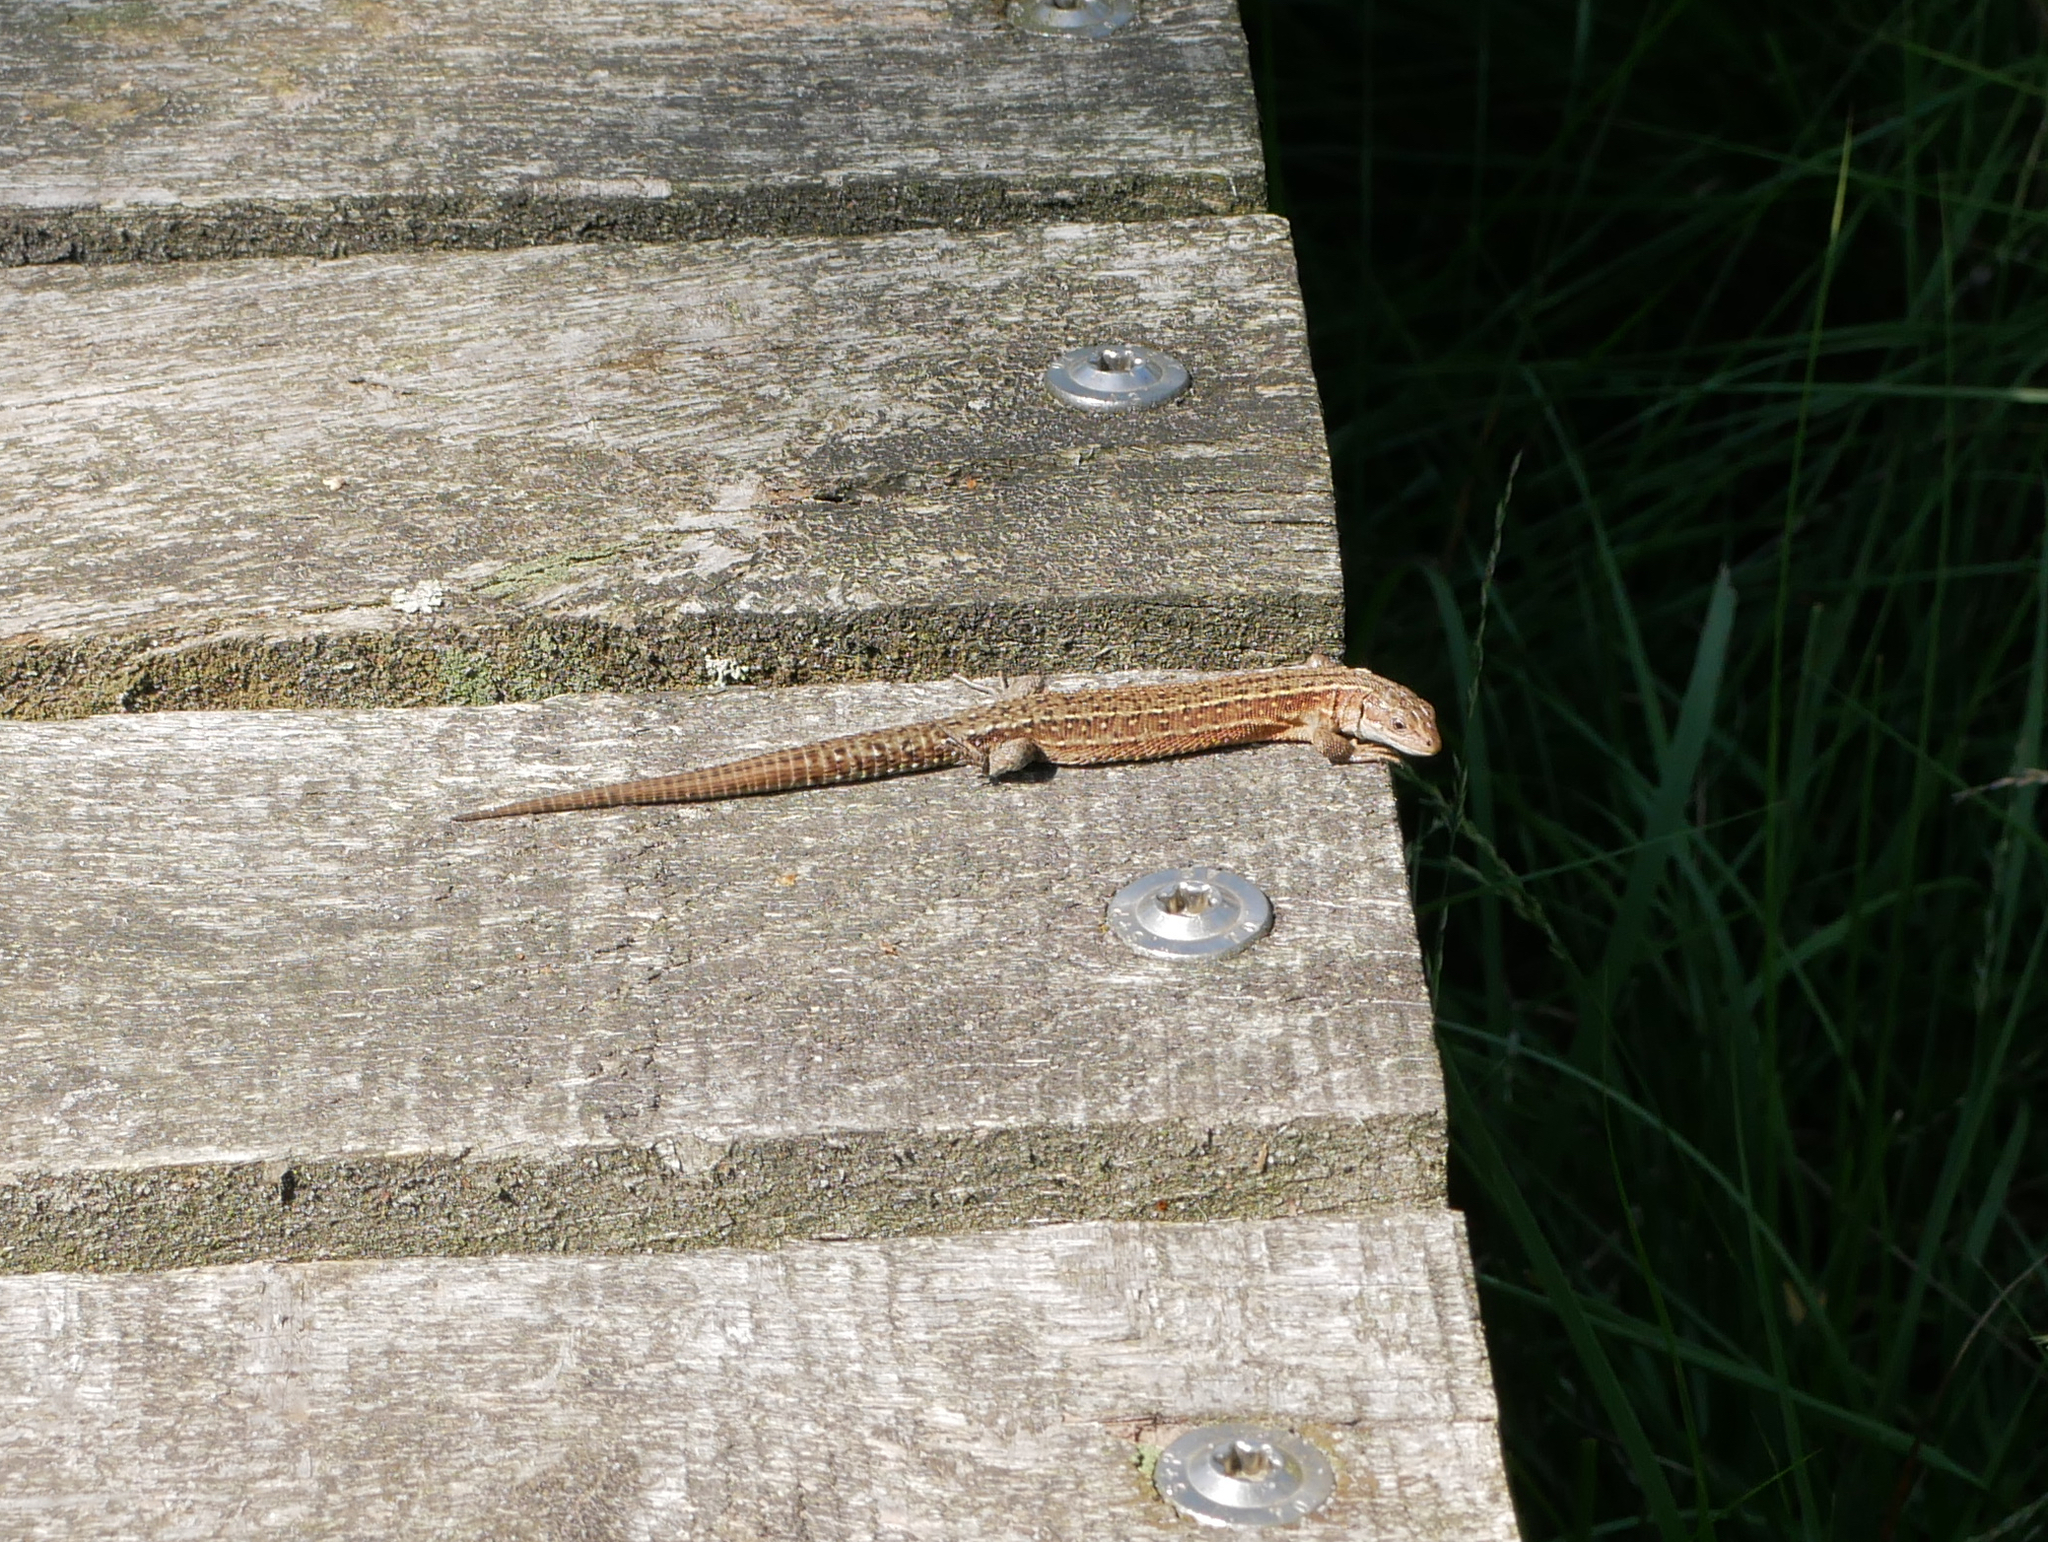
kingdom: Animalia
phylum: Chordata
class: Squamata
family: Lacertidae
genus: Zootoca
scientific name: Zootoca vivipara
